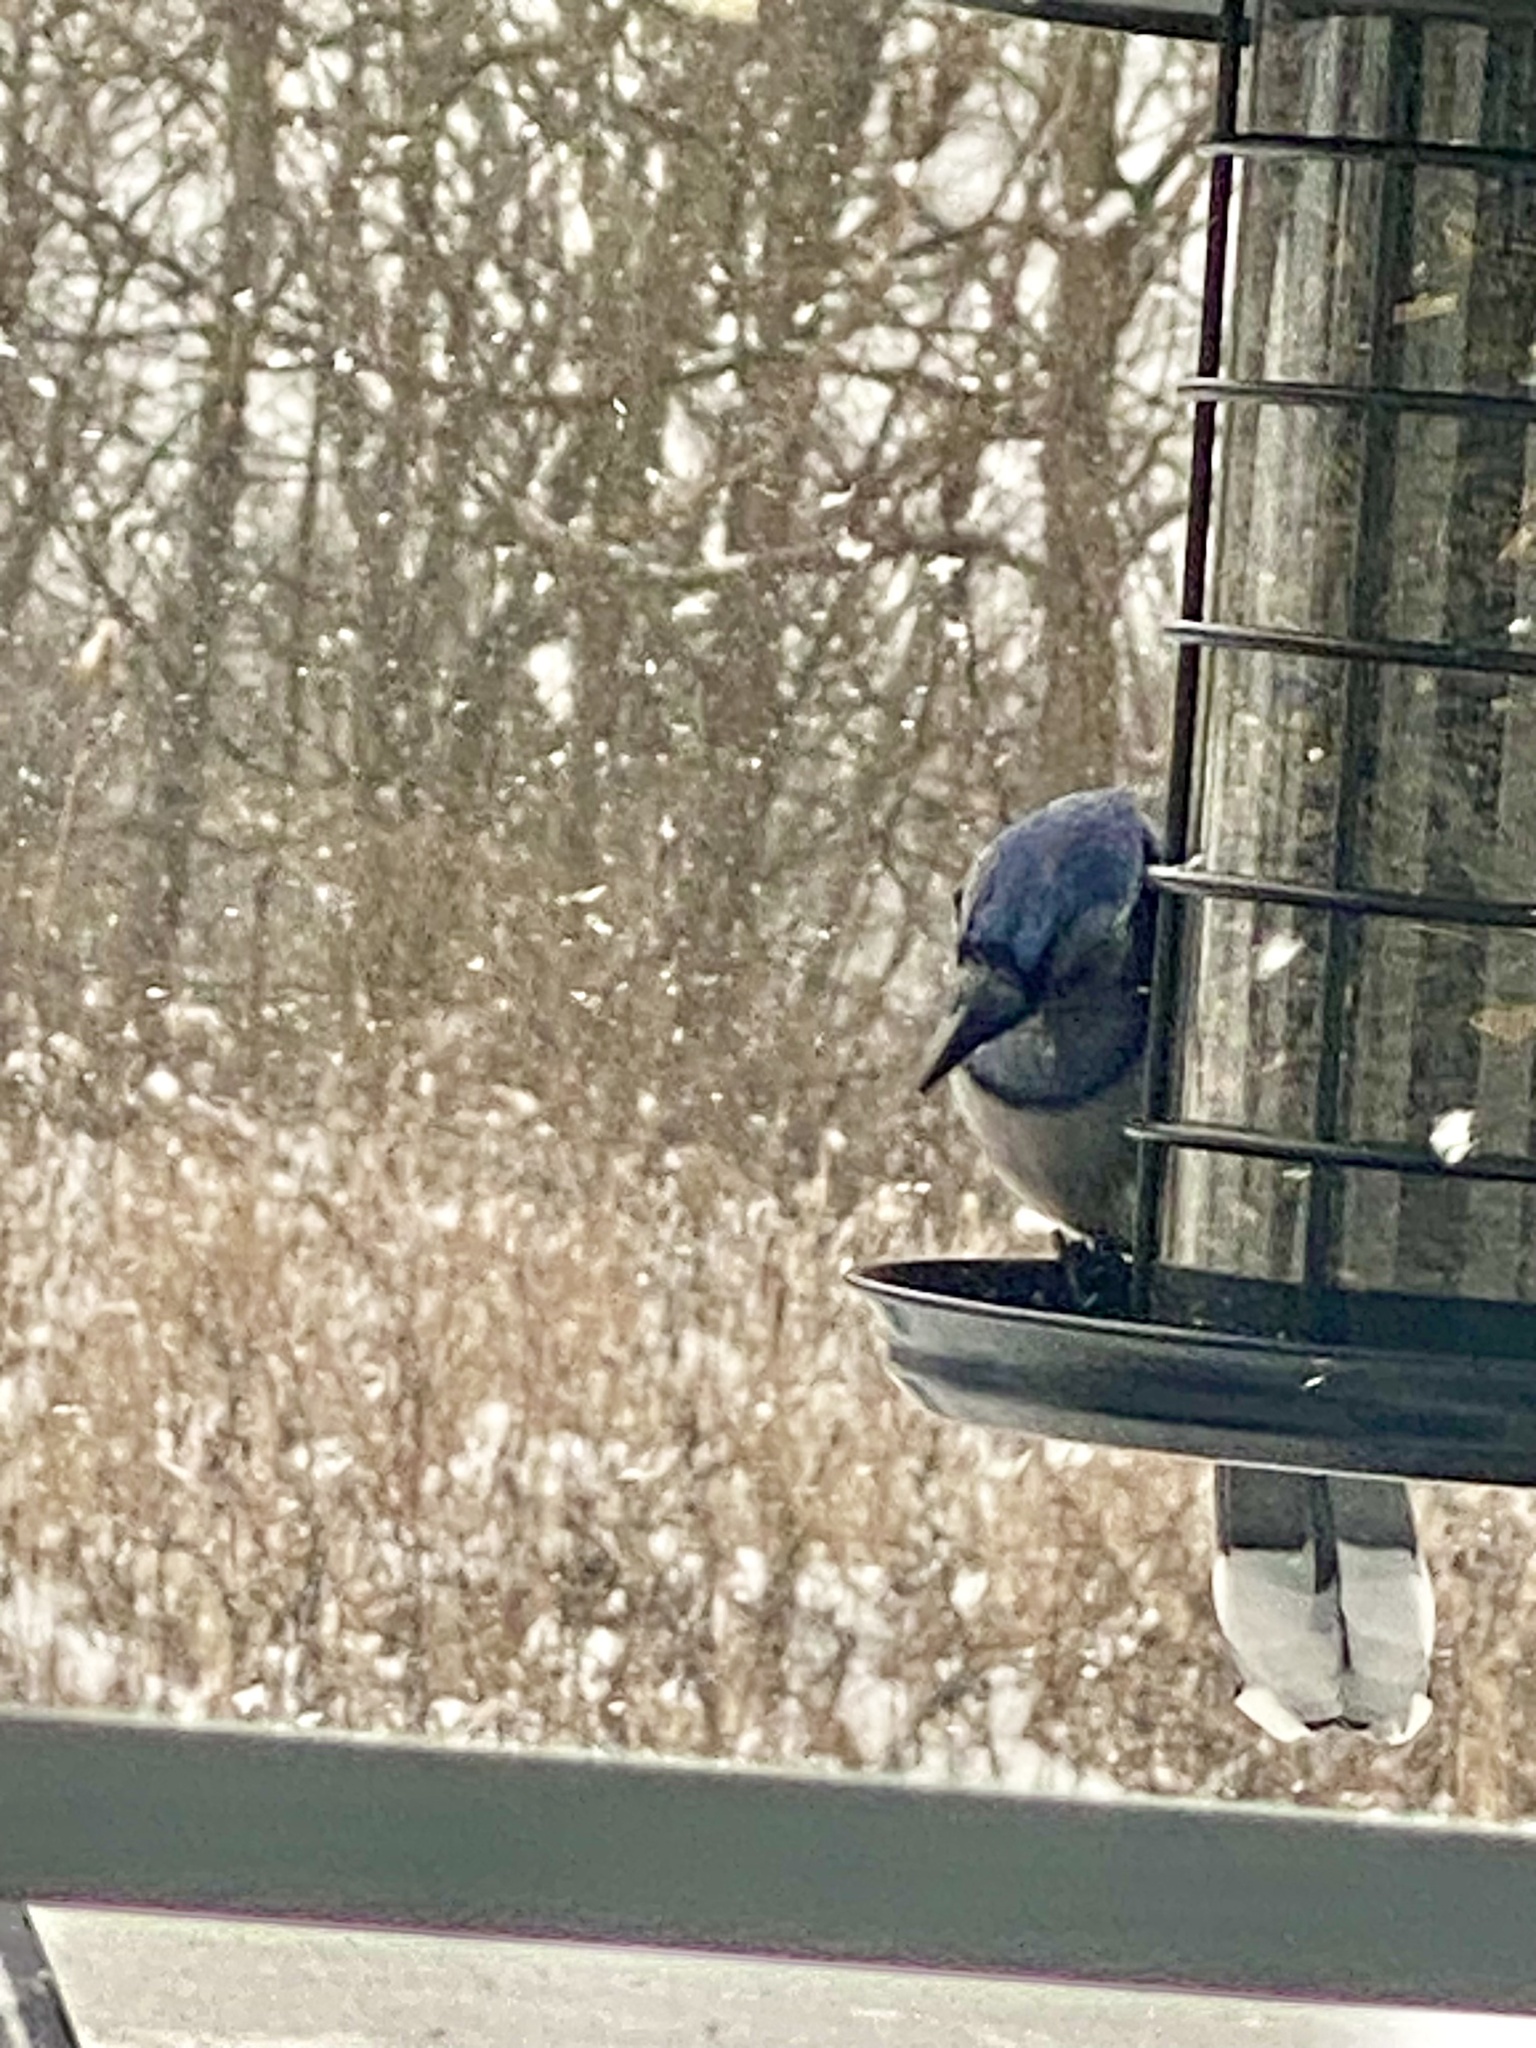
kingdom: Animalia
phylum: Chordata
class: Aves
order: Passeriformes
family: Corvidae
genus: Cyanocitta
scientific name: Cyanocitta cristata
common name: Blue jay
